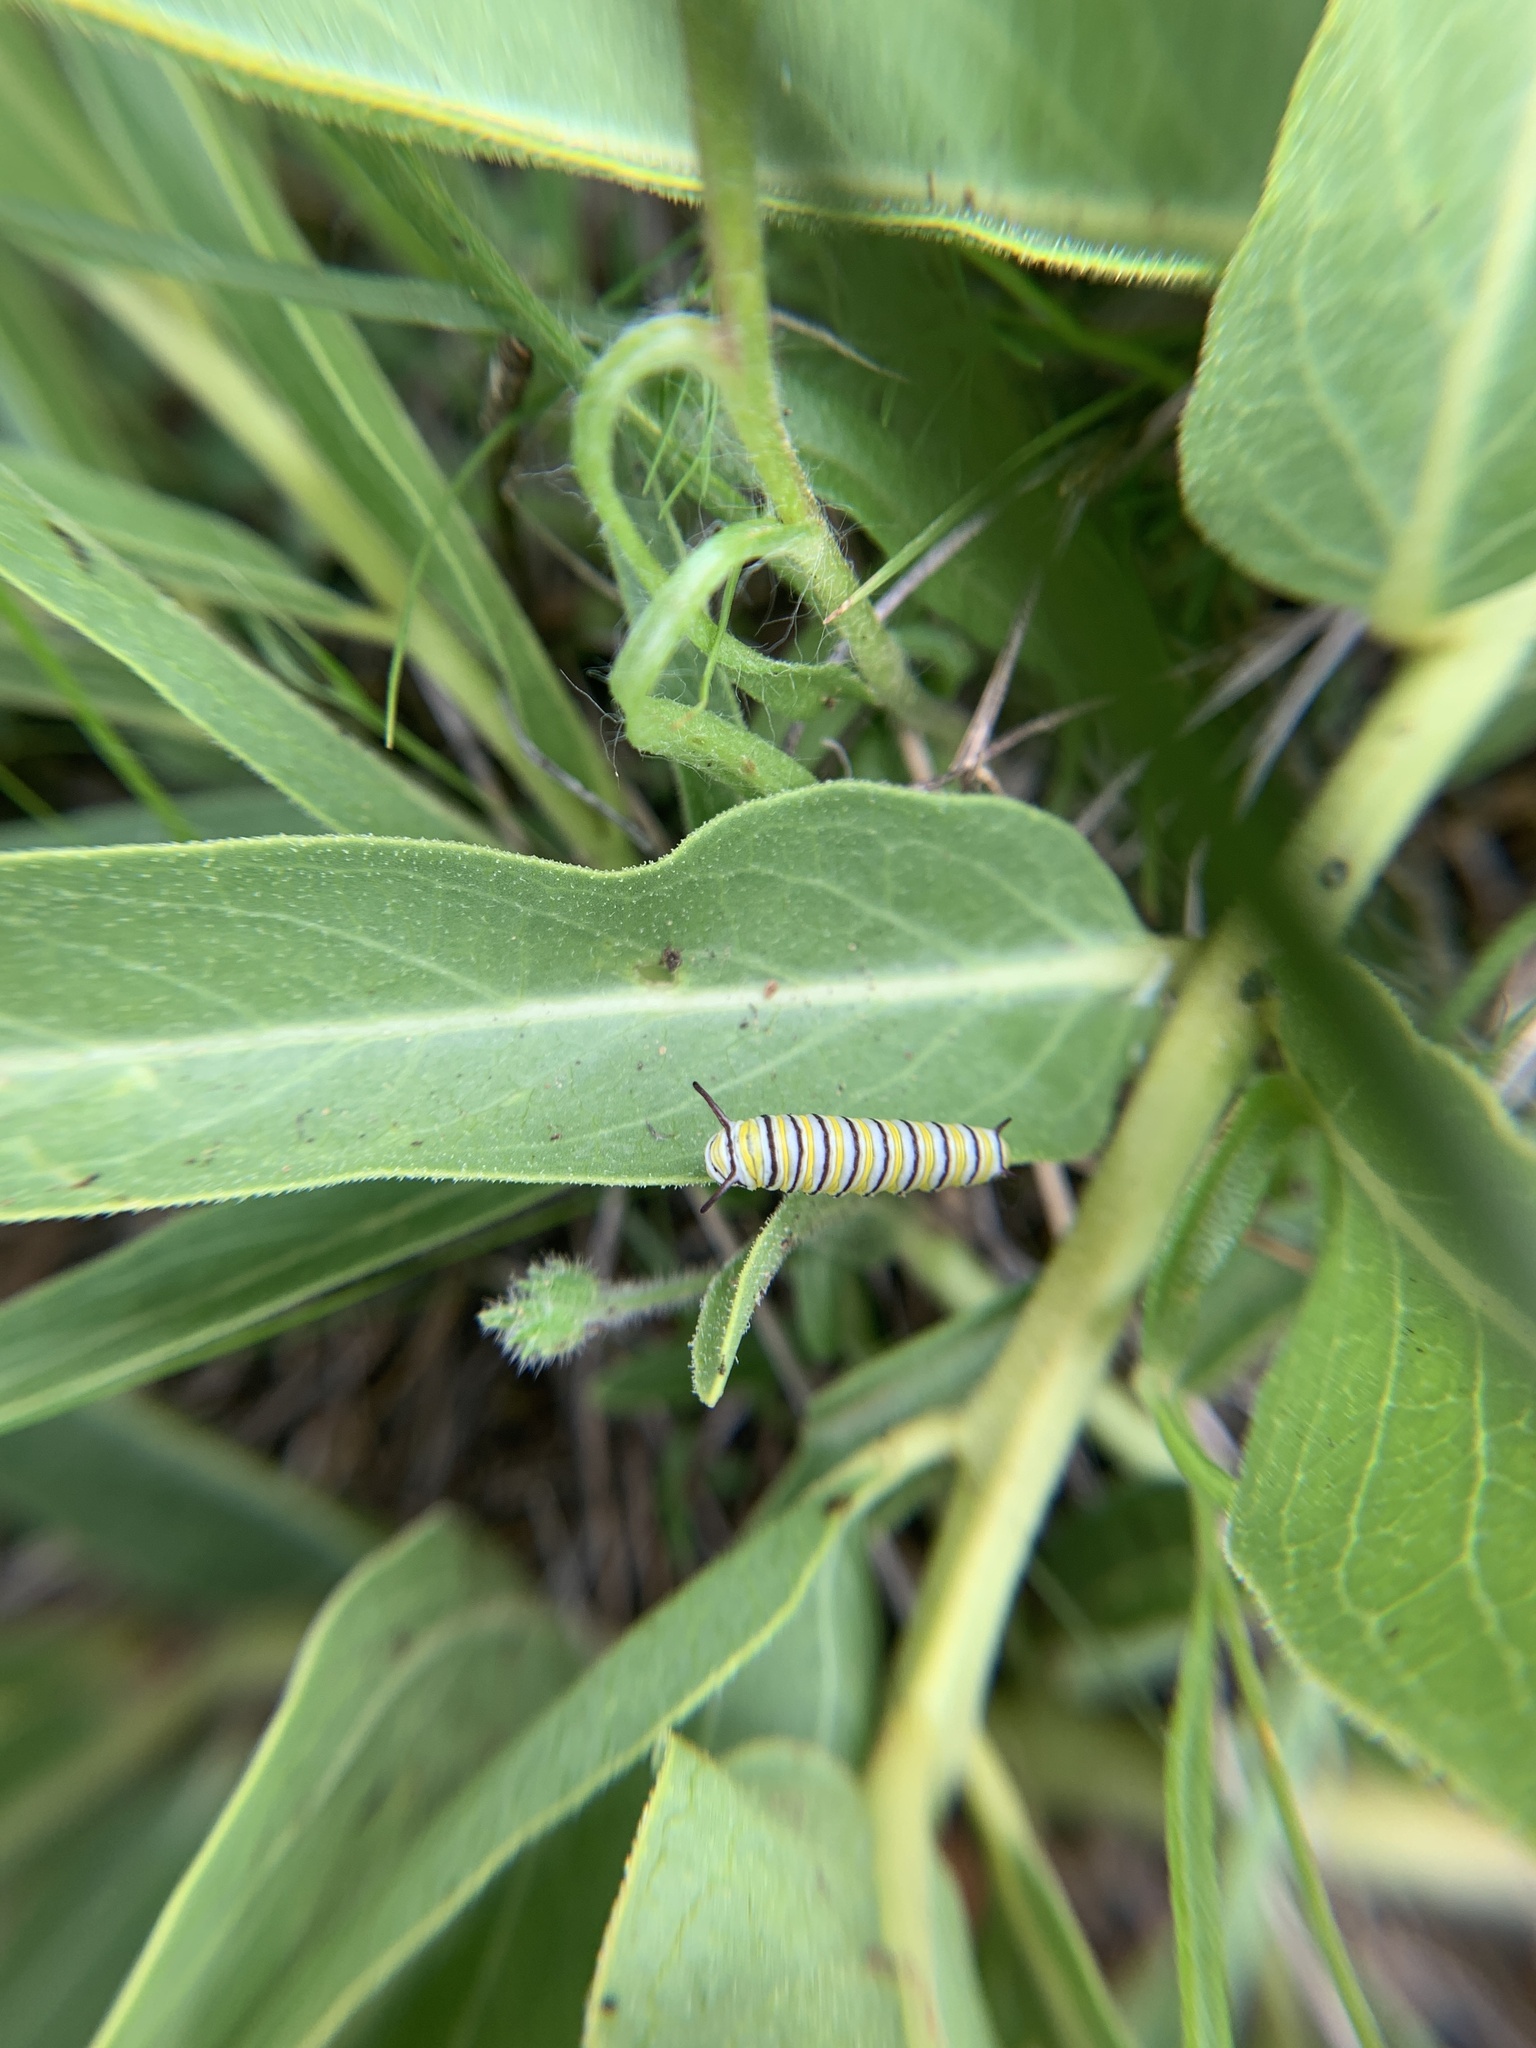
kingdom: Animalia
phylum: Arthropoda
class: Insecta
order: Lepidoptera
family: Nymphalidae
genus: Danaus
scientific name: Danaus plexippus
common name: Monarch
